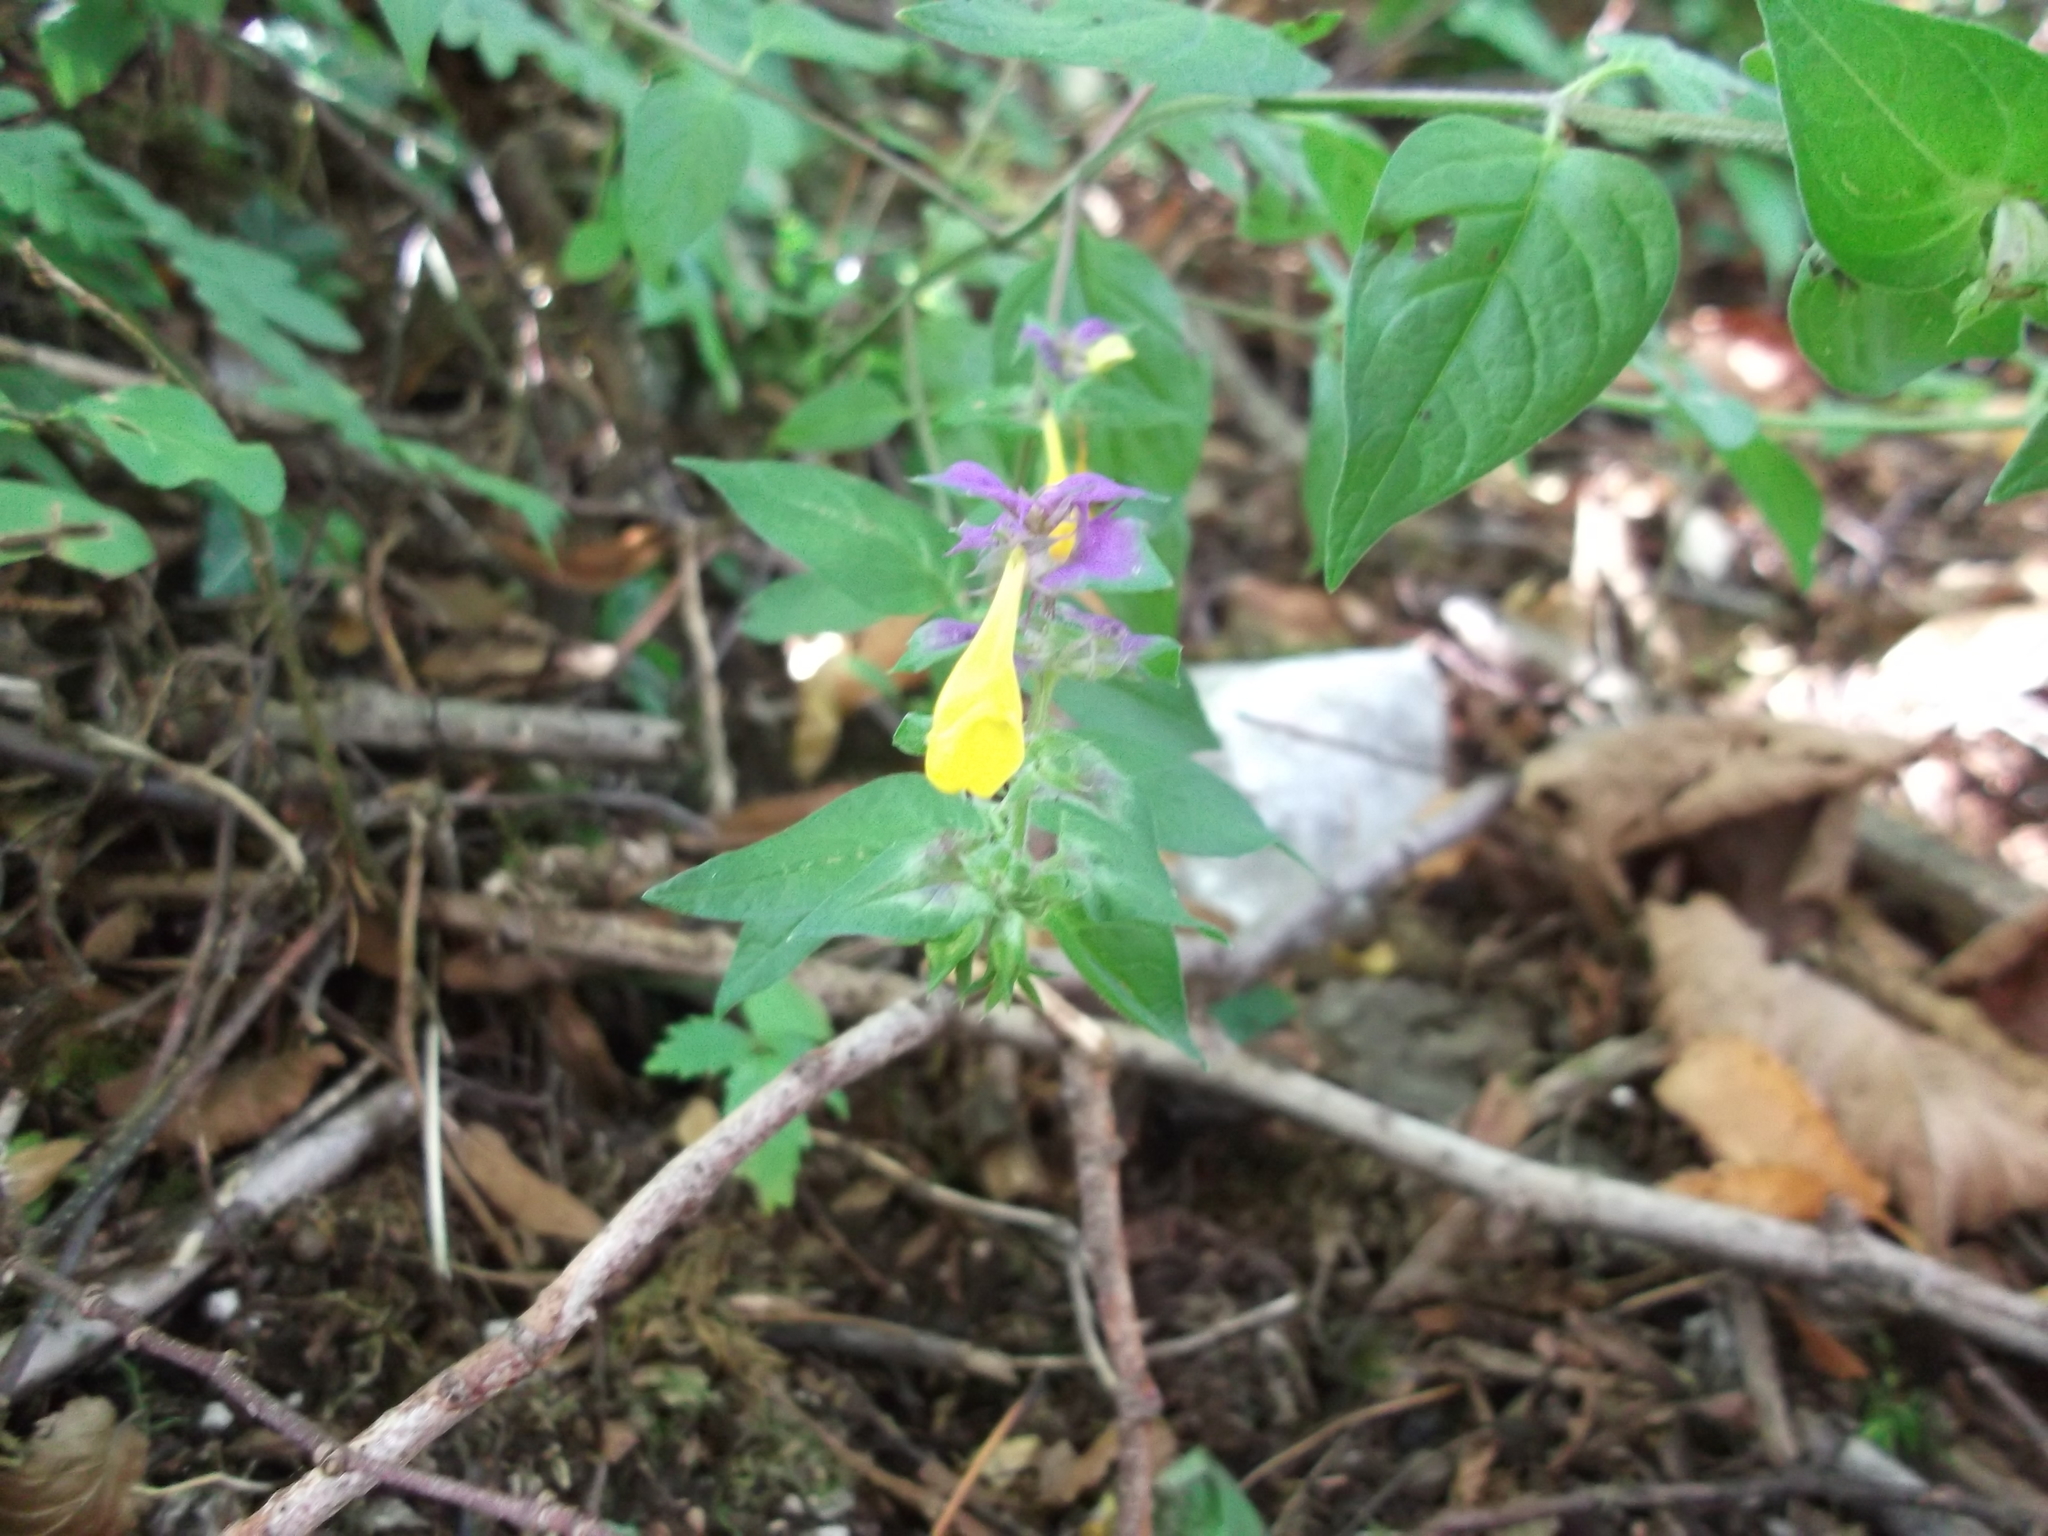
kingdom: Plantae
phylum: Tracheophyta
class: Magnoliopsida
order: Lamiales
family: Orobanchaceae
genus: Melampyrum
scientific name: Melampyrum nemorosum
